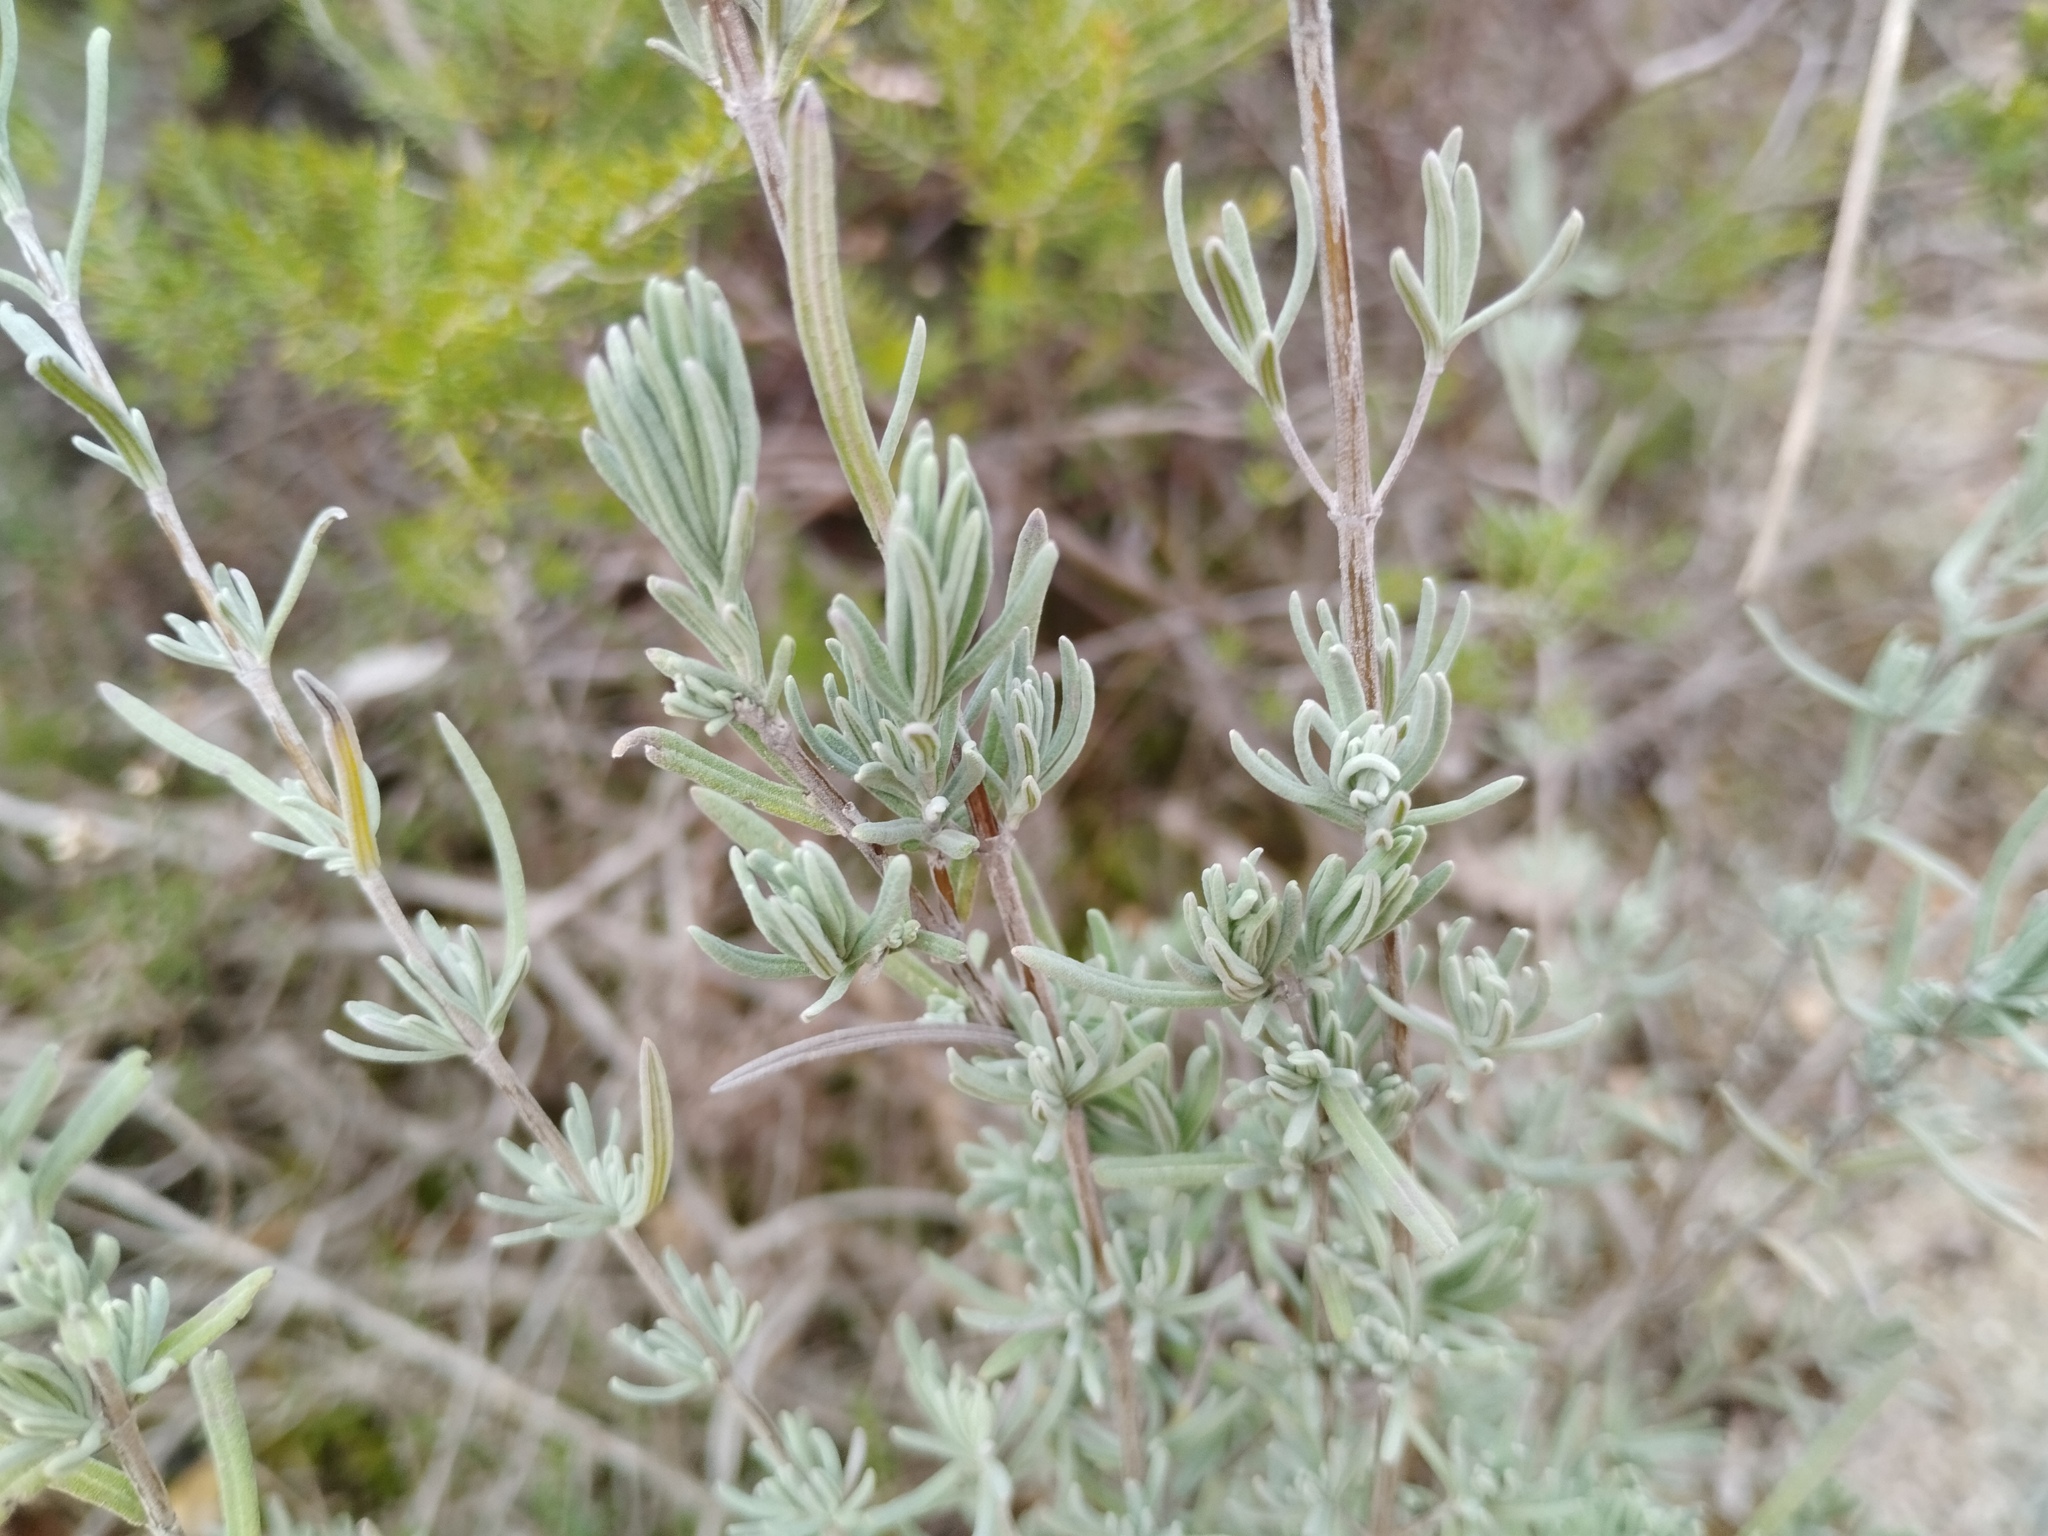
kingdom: Plantae
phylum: Tracheophyta
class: Magnoliopsida
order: Lamiales
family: Lamiaceae
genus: Lavandula
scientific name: Lavandula stoechas
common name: French lavender
